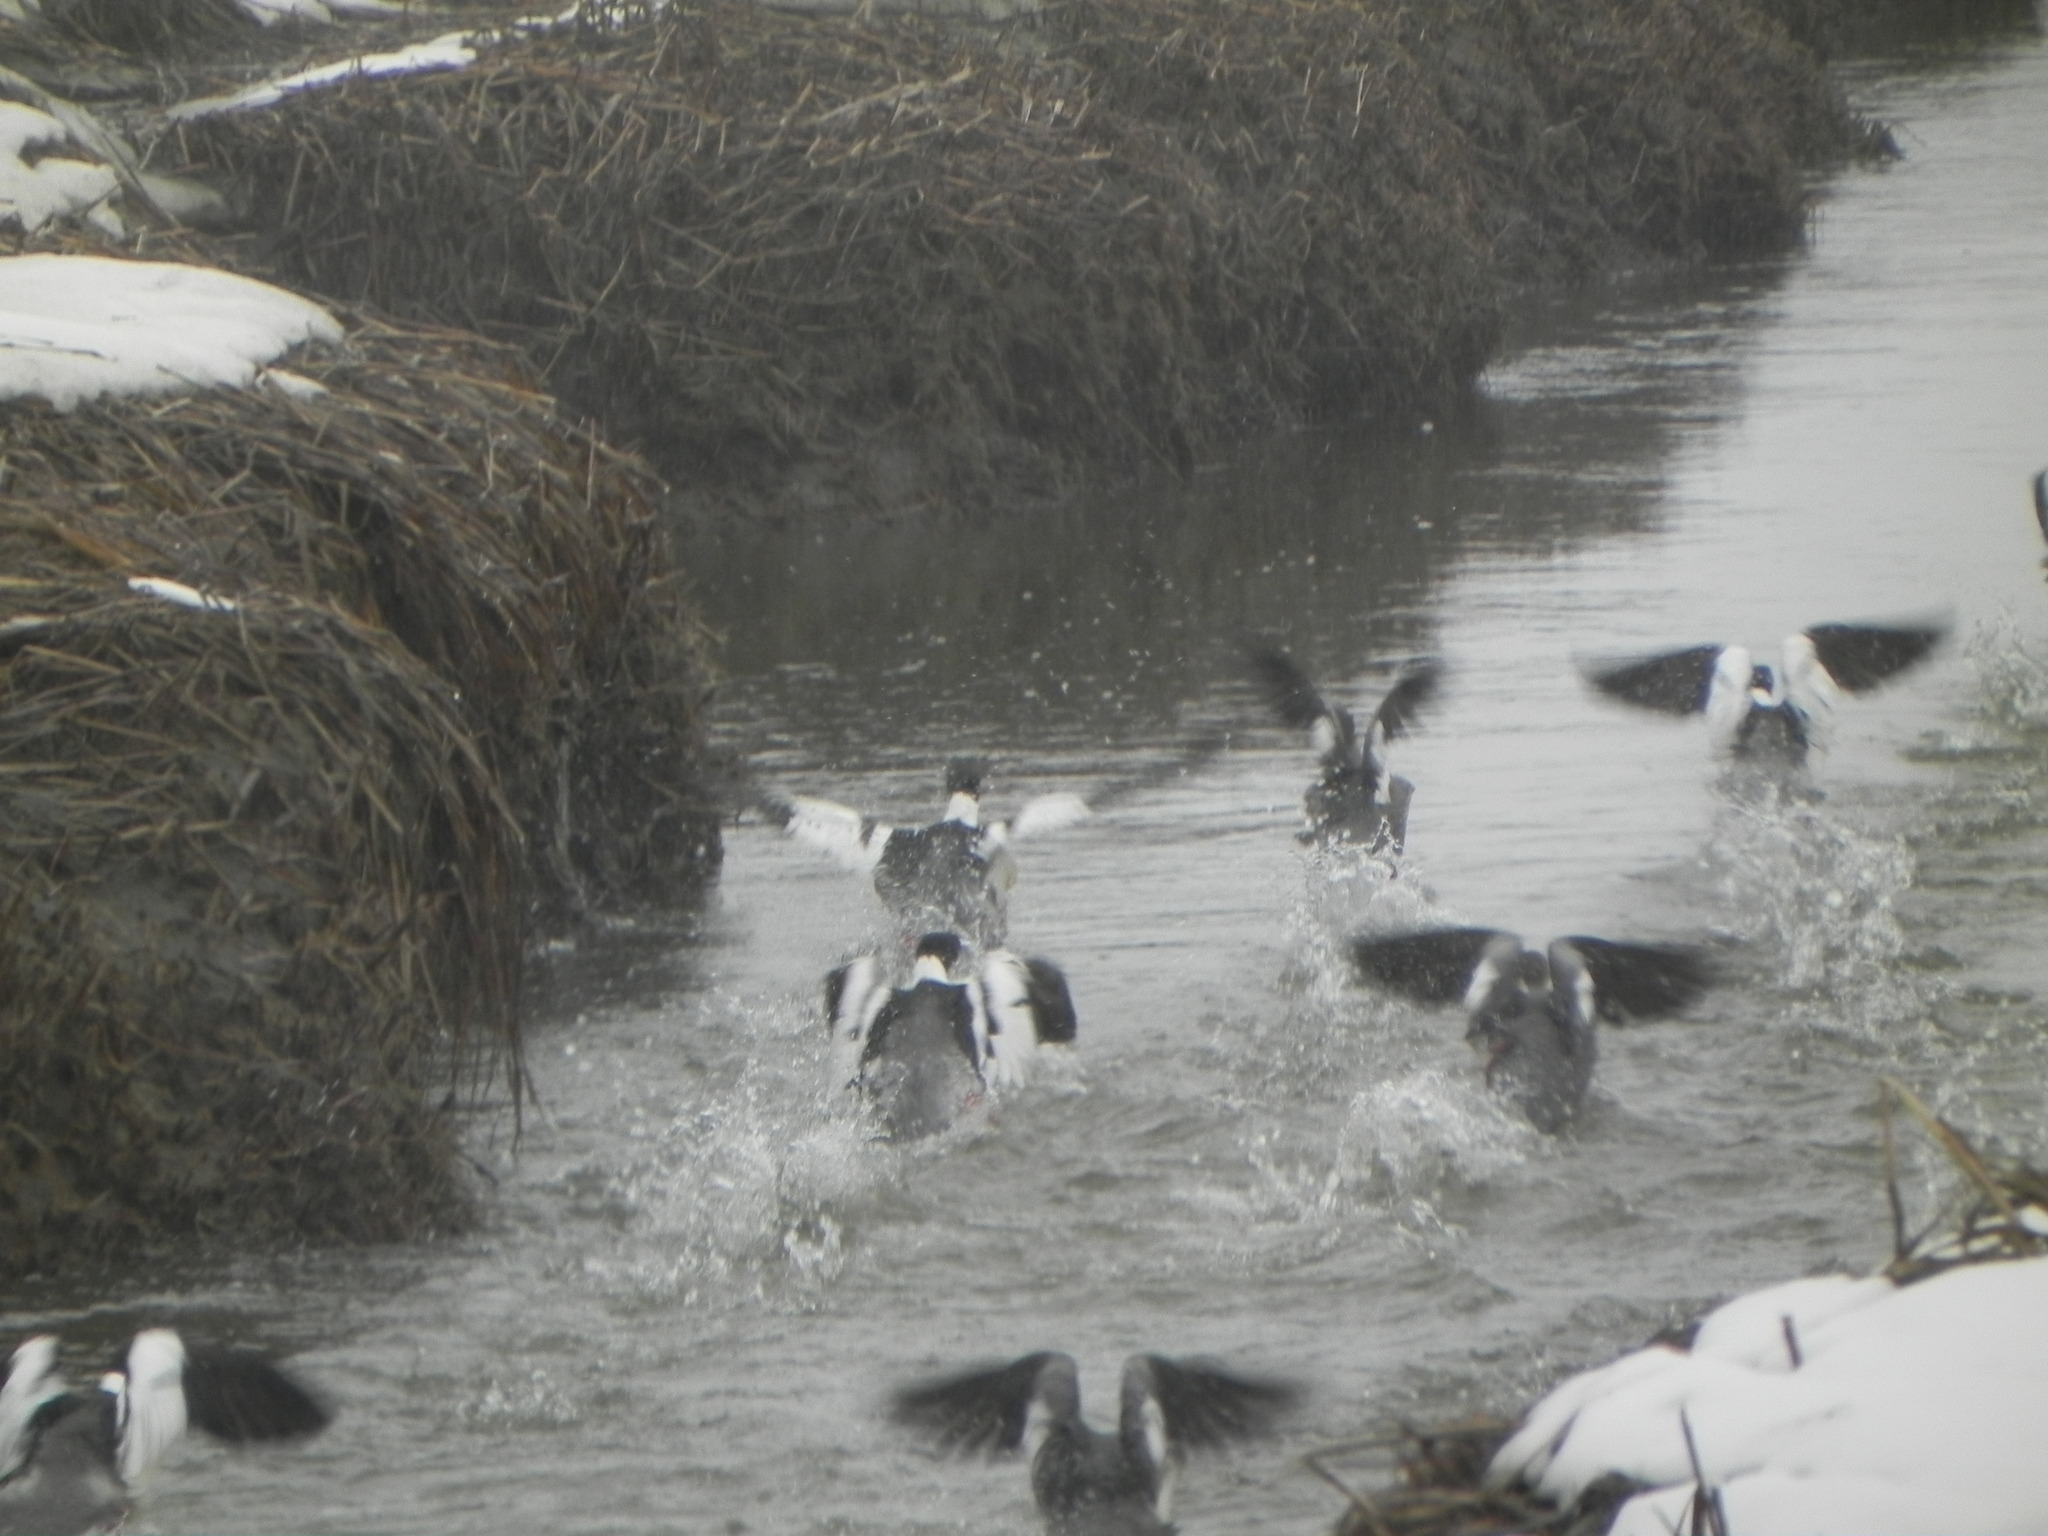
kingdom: Animalia
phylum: Chordata
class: Aves
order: Anseriformes
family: Anatidae
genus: Mergus
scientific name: Mergus merganser
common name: Common merganser
